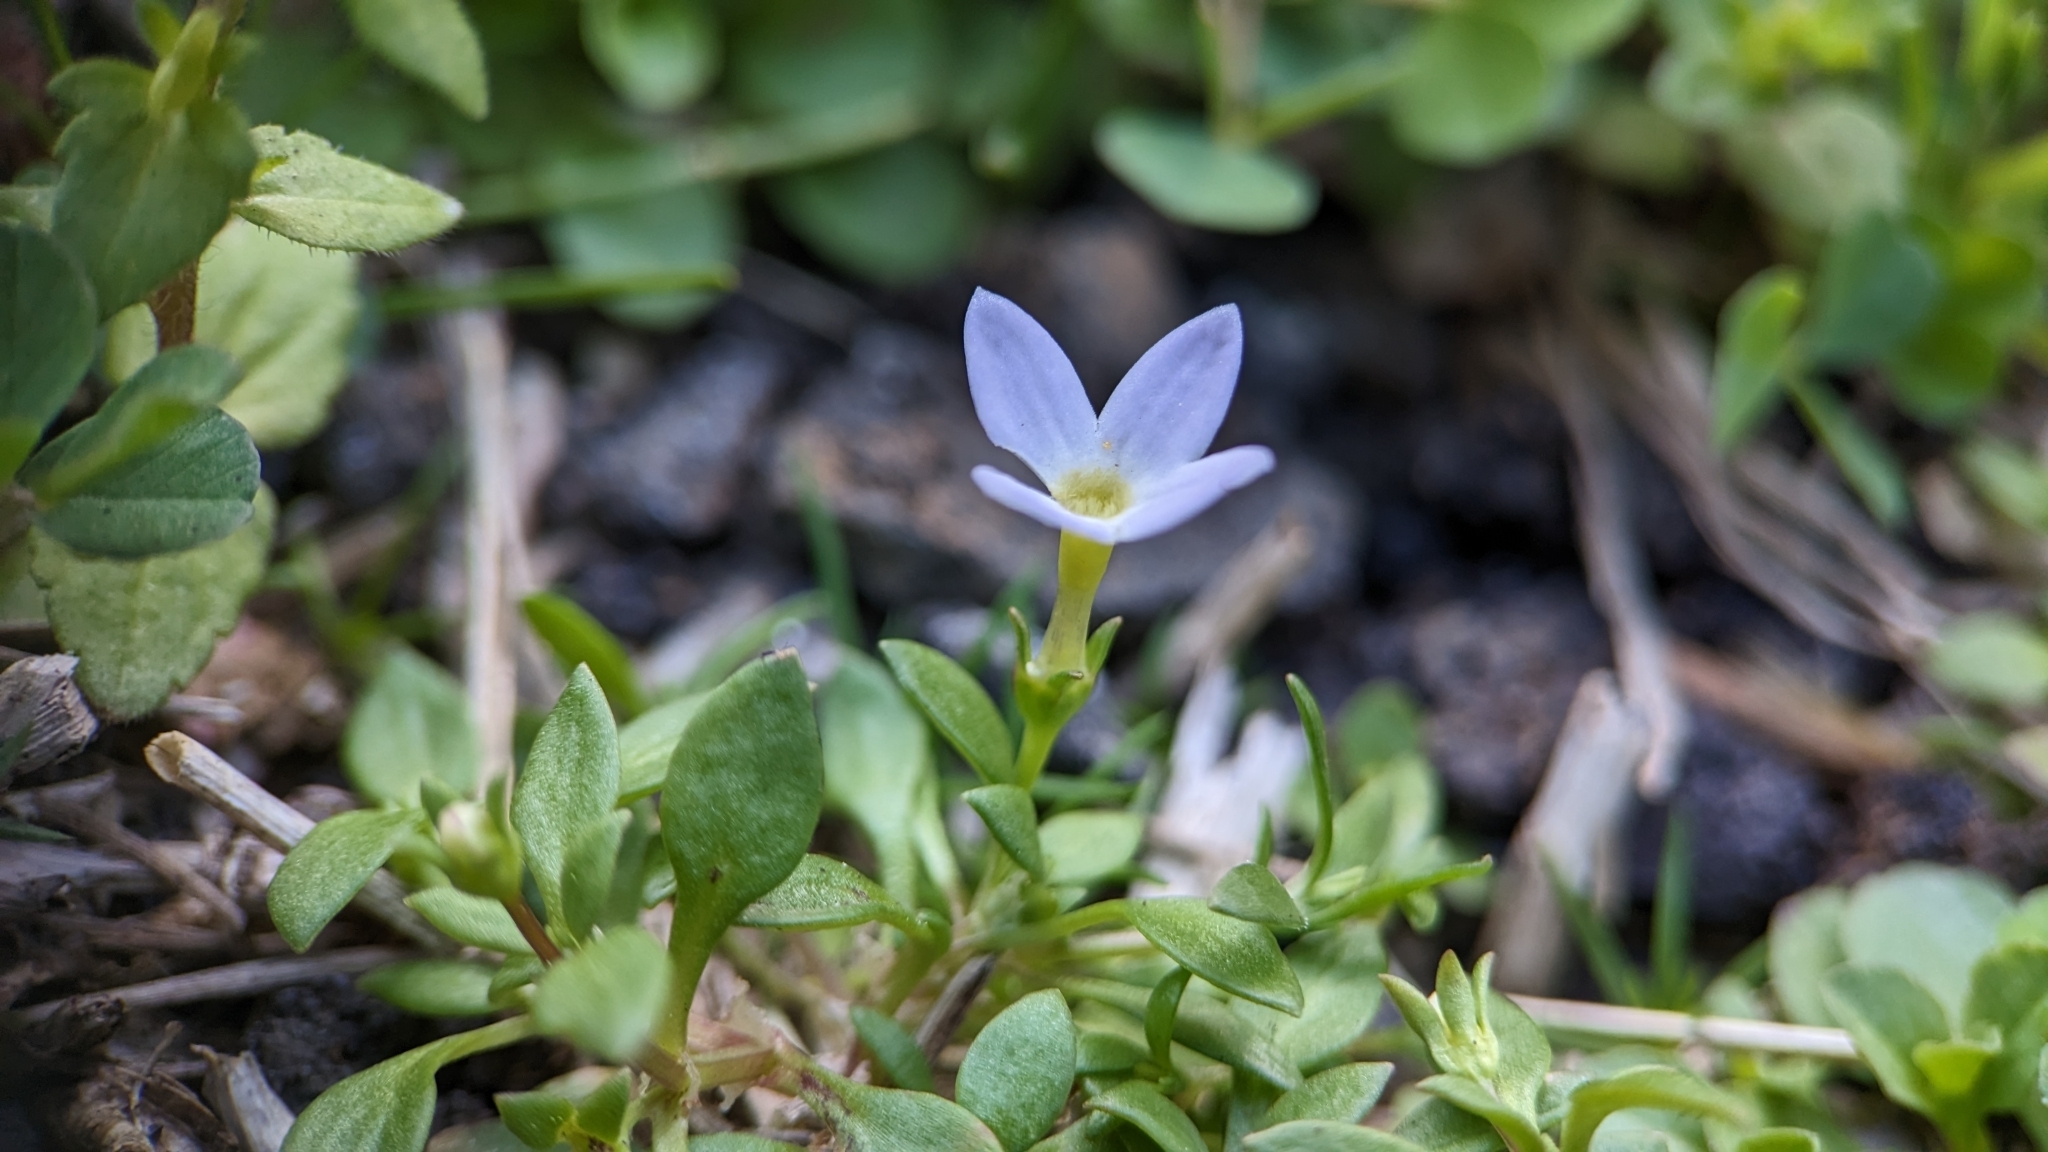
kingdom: Plantae
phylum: Tracheophyta
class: Magnoliopsida
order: Gentianales
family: Rubiaceae
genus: Houstonia
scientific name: Houstonia rosea
